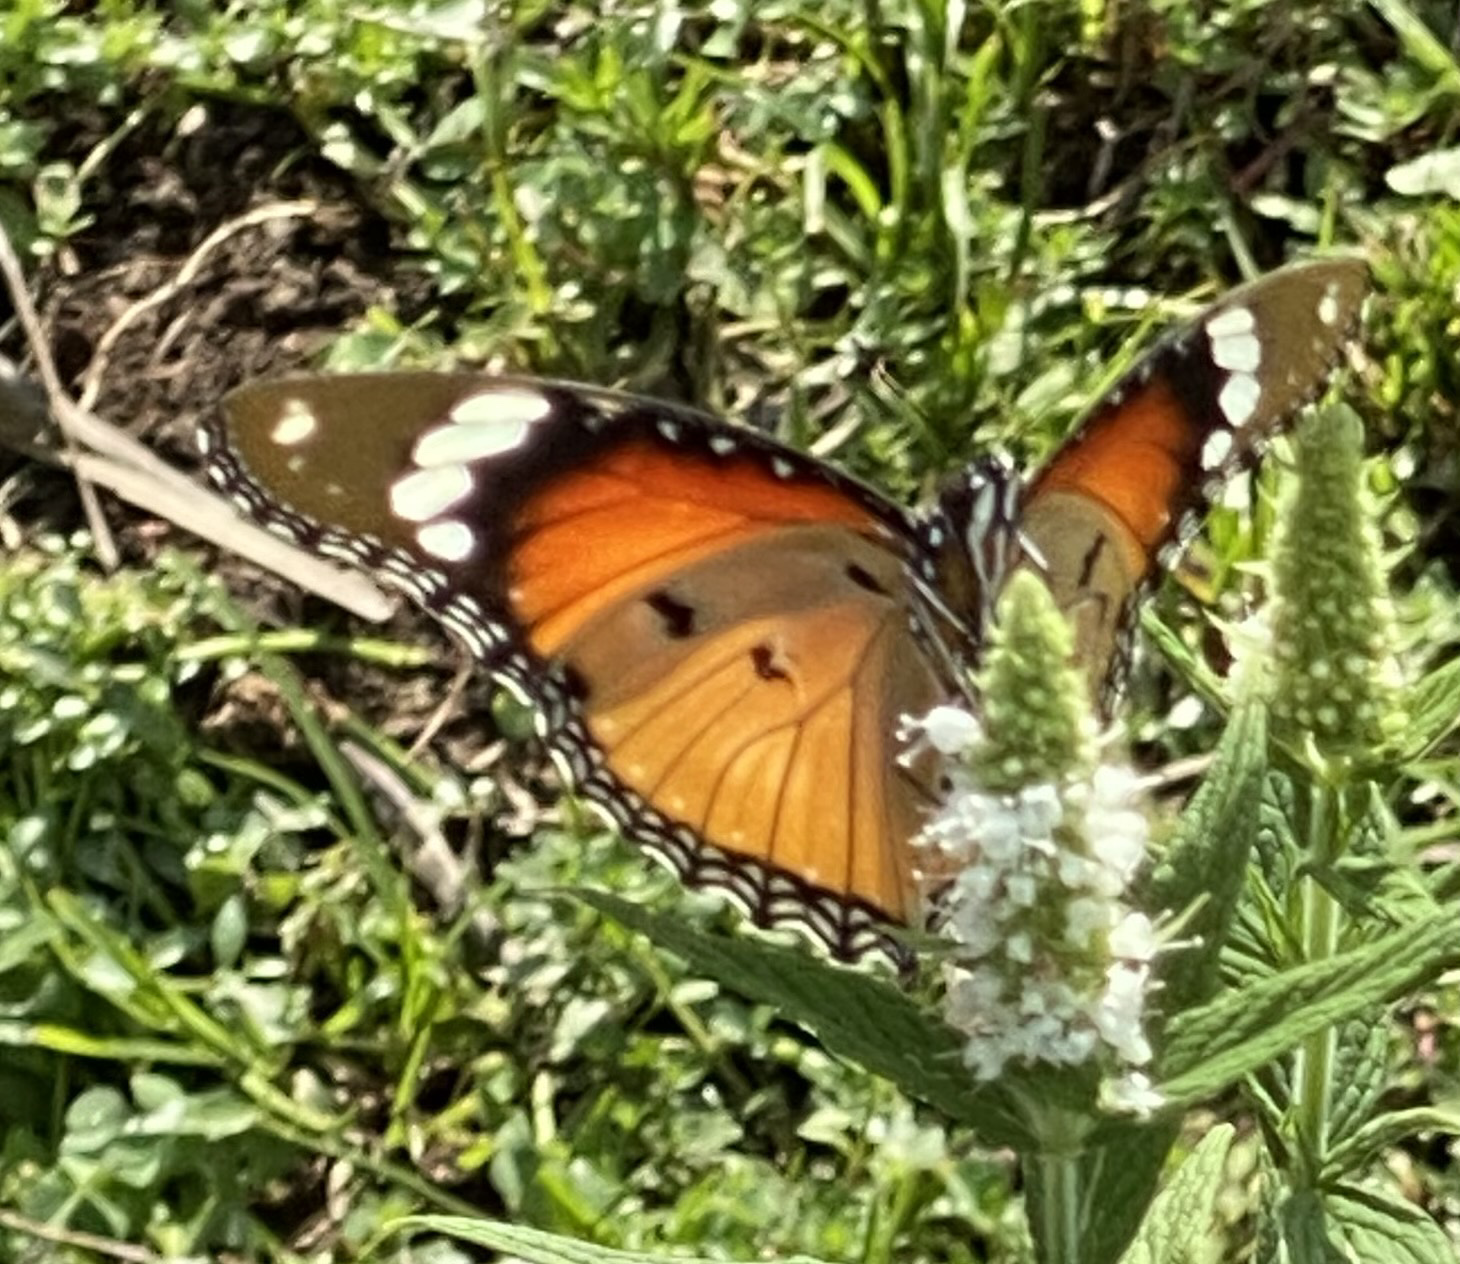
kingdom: Animalia
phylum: Arthropoda
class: Insecta
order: Lepidoptera
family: Nymphalidae
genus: Hypolimnas
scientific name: Hypolimnas misippus
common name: False plain tiger
